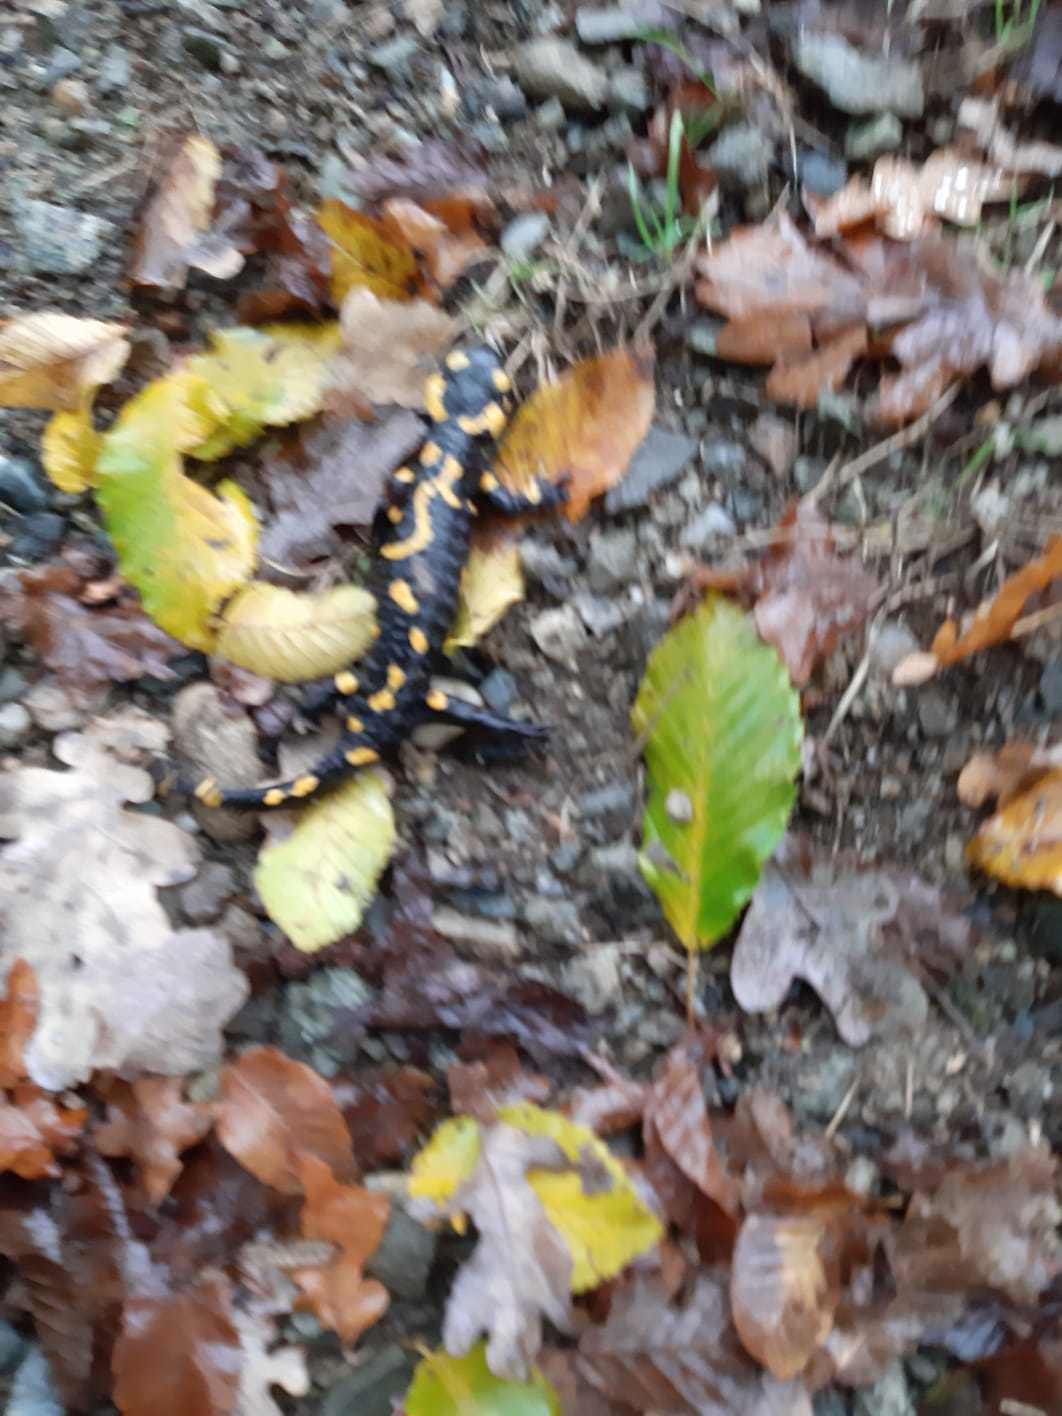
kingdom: Animalia
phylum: Chordata
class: Amphibia
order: Caudata
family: Salamandridae
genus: Salamandra
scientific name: Salamandra salamandra
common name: Fire salamander
